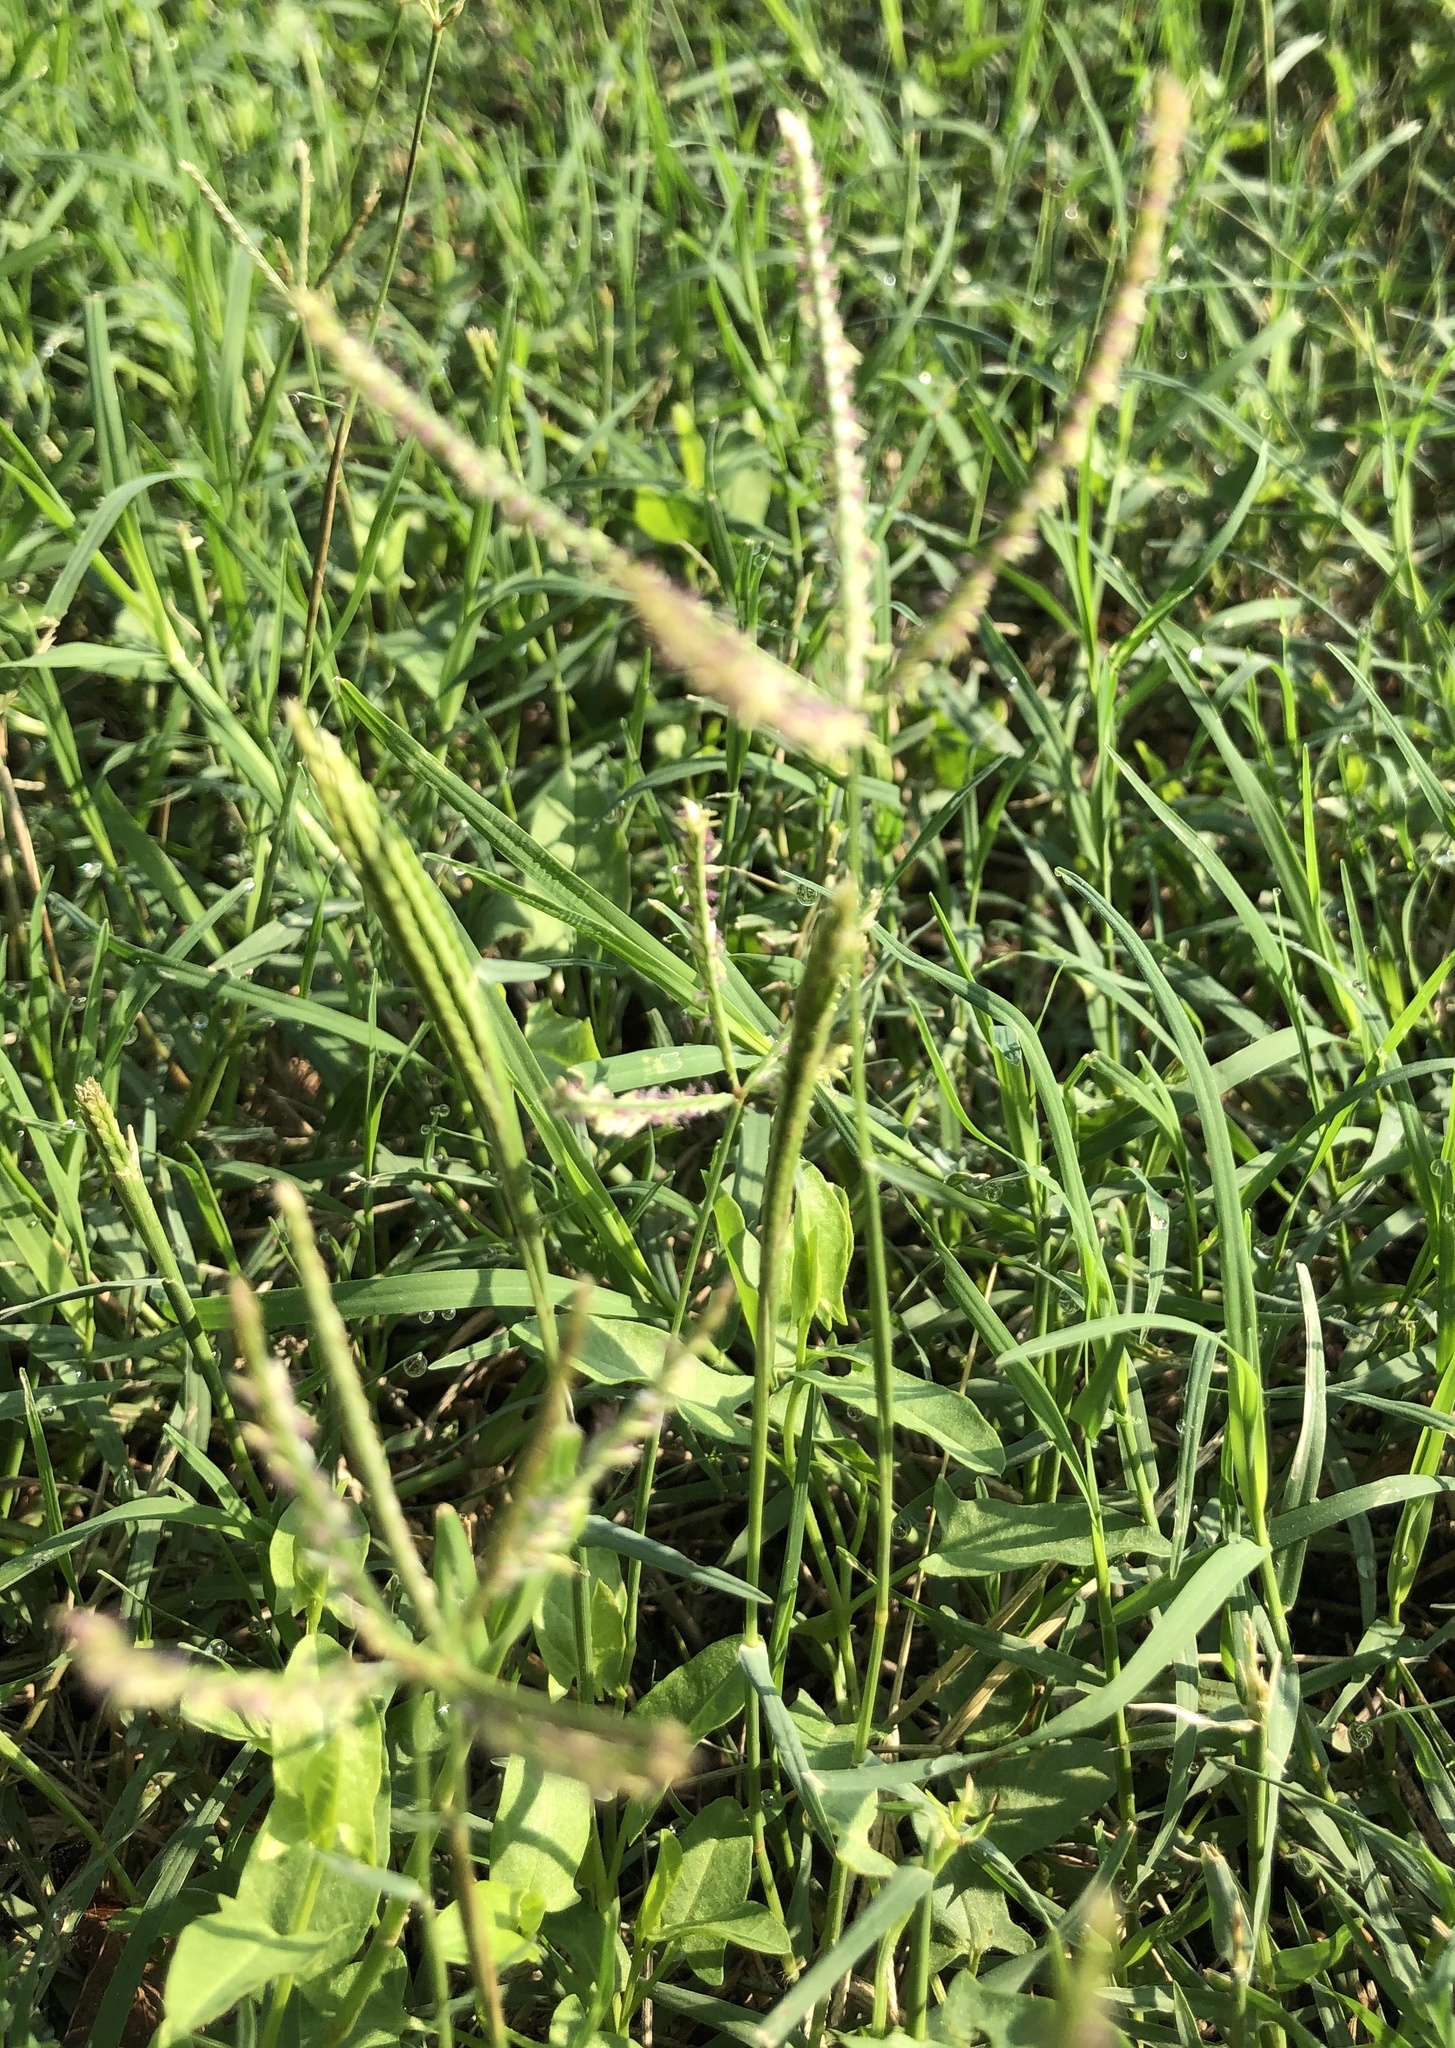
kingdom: Plantae
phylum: Tracheophyta
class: Liliopsida
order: Poales
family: Poaceae
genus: Cynodon
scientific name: Cynodon dactylon
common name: Bermuda grass
